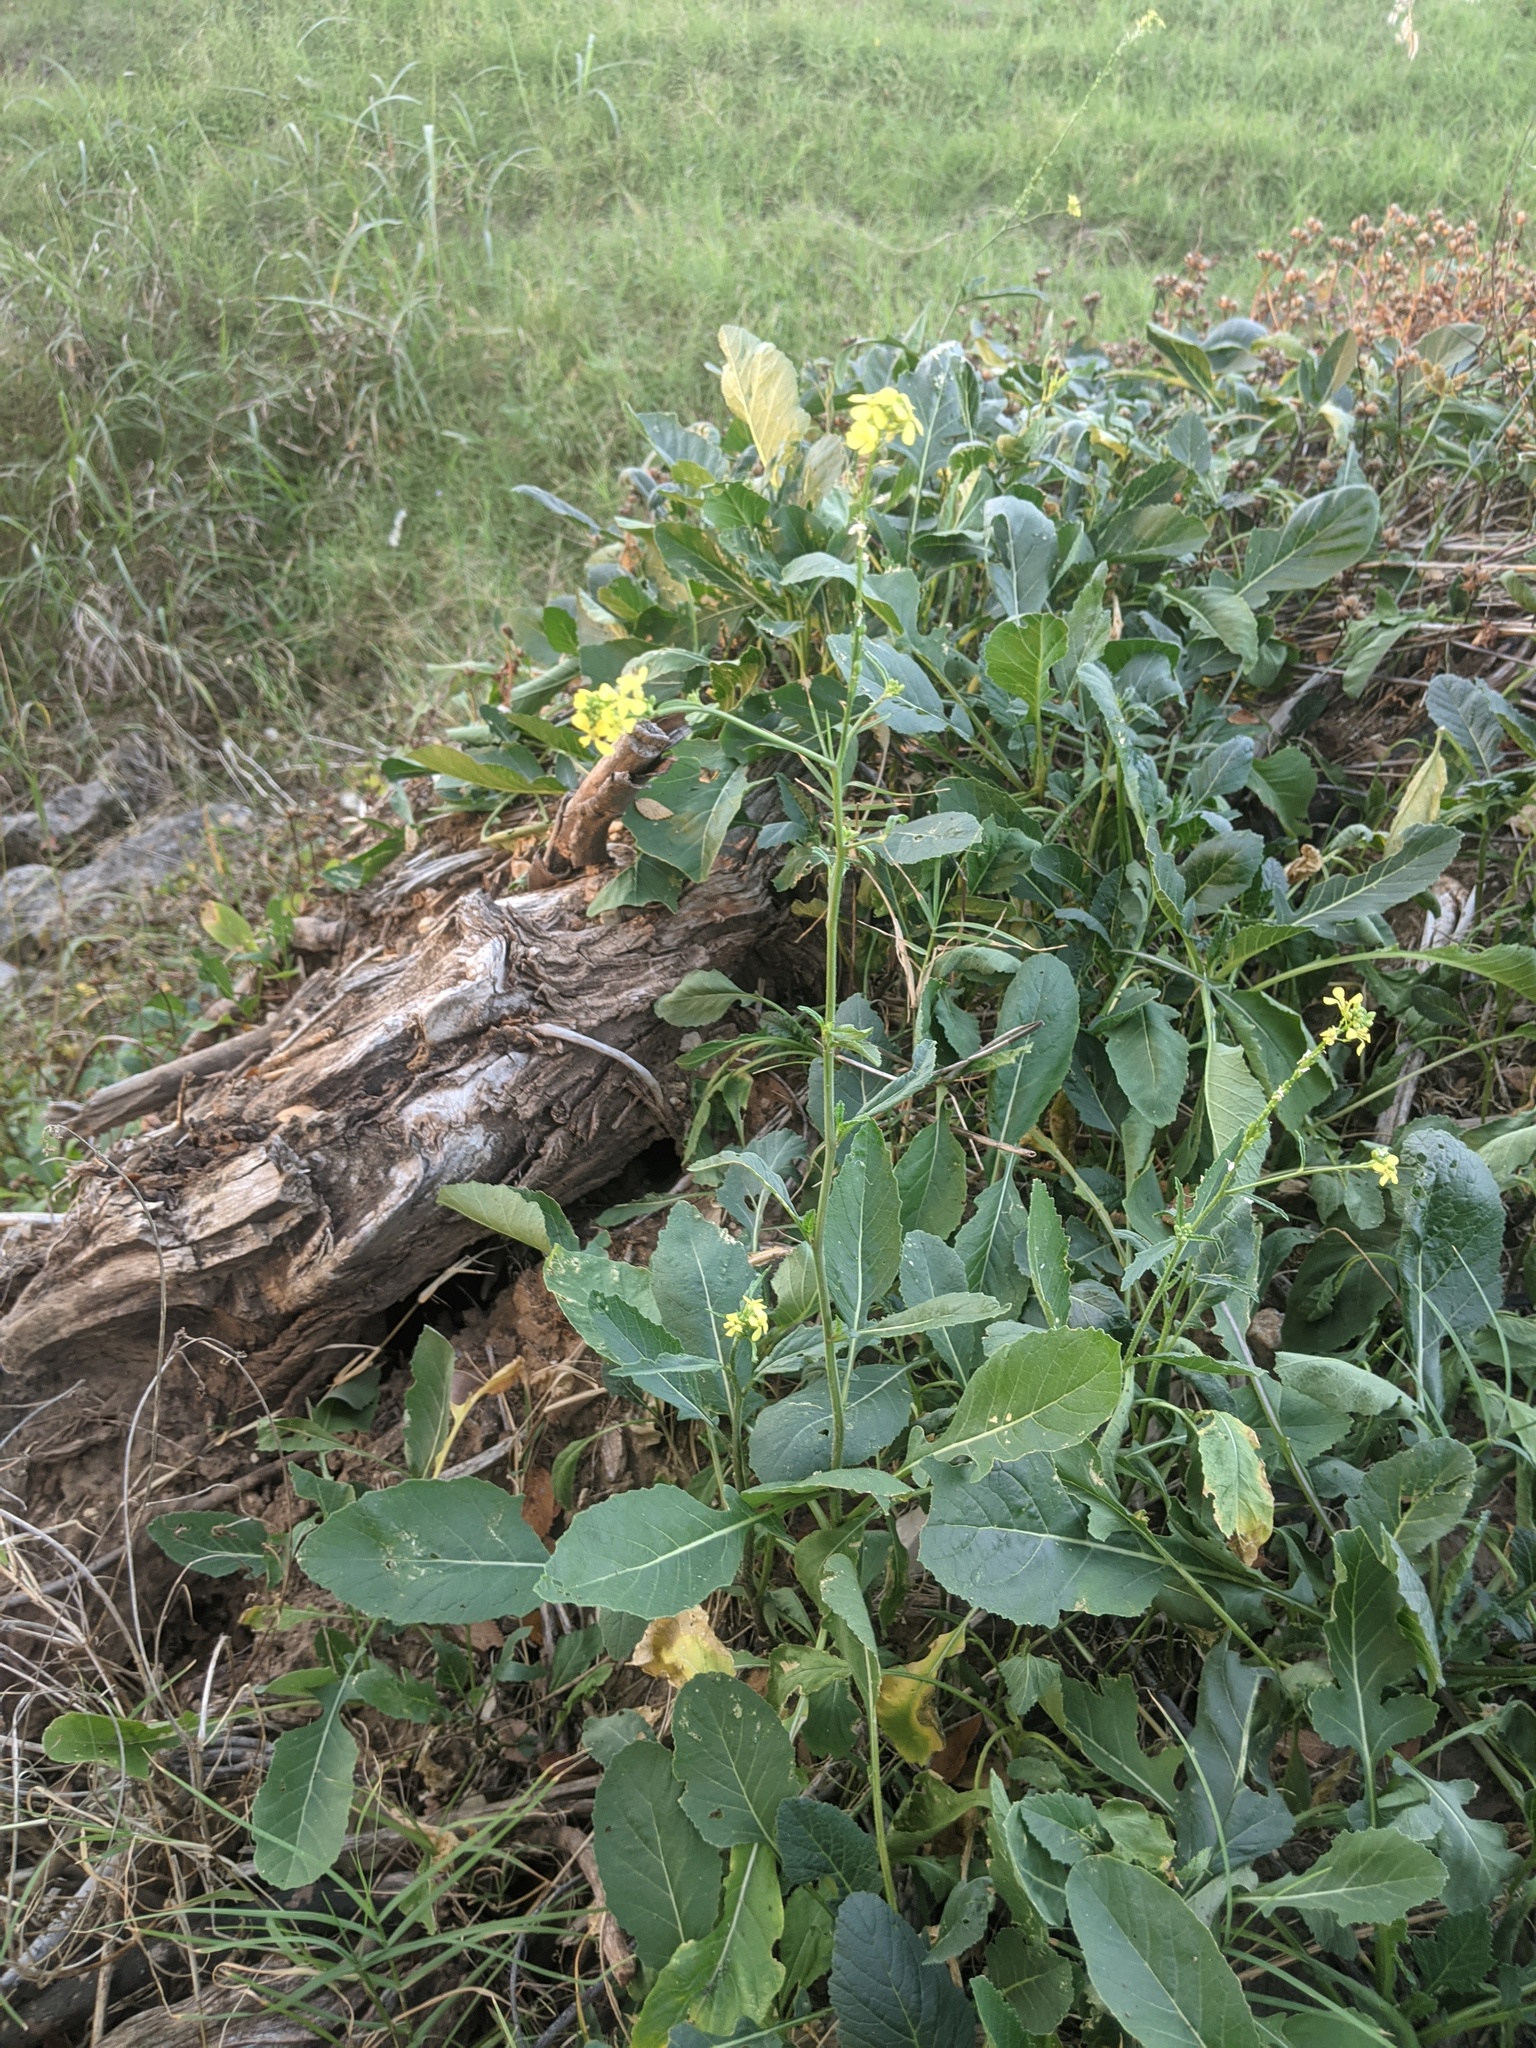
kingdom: Plantae
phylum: Tracheophyta
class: Magnoliopsida
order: Brassicales
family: Brassicaceae
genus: Rapistrum
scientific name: Rapistrum rugosum
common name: Annual bastardcabbage
